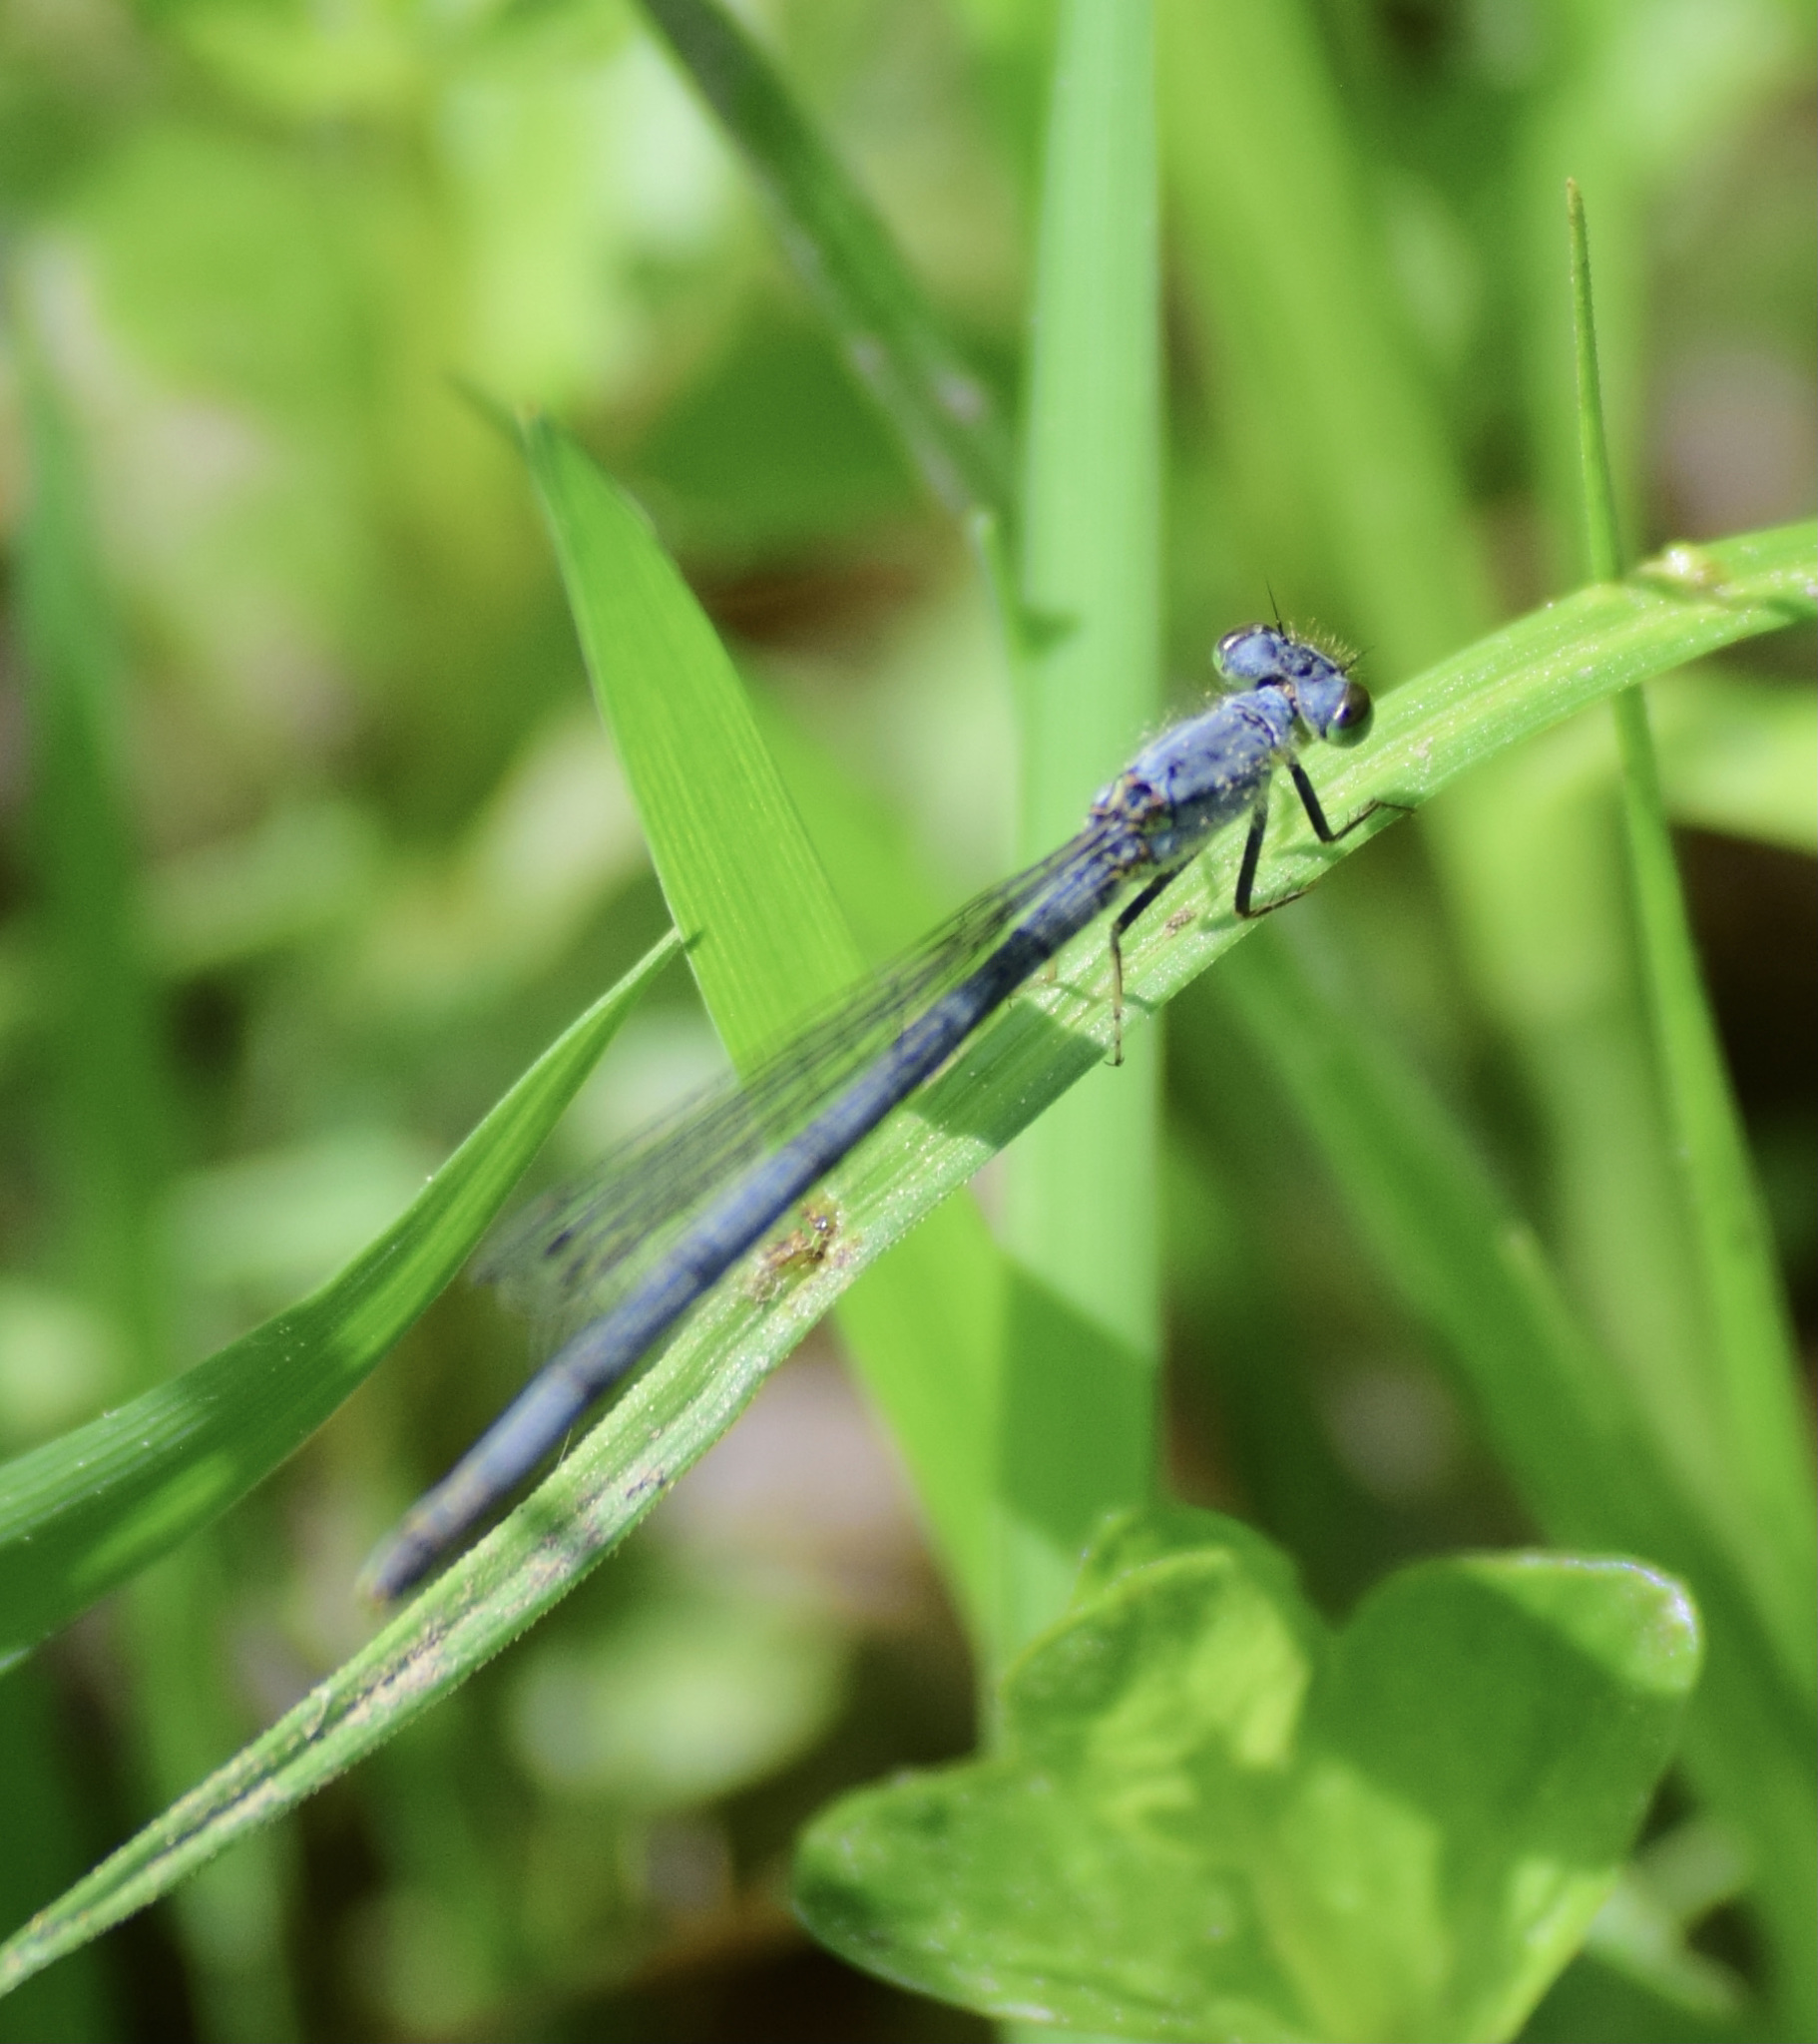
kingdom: Animalia
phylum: Arthropoda
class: Insecta
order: Odonata
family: Coenagrionidae
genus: Ischnura
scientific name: Ischnura verticalis
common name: Eastern forktail
